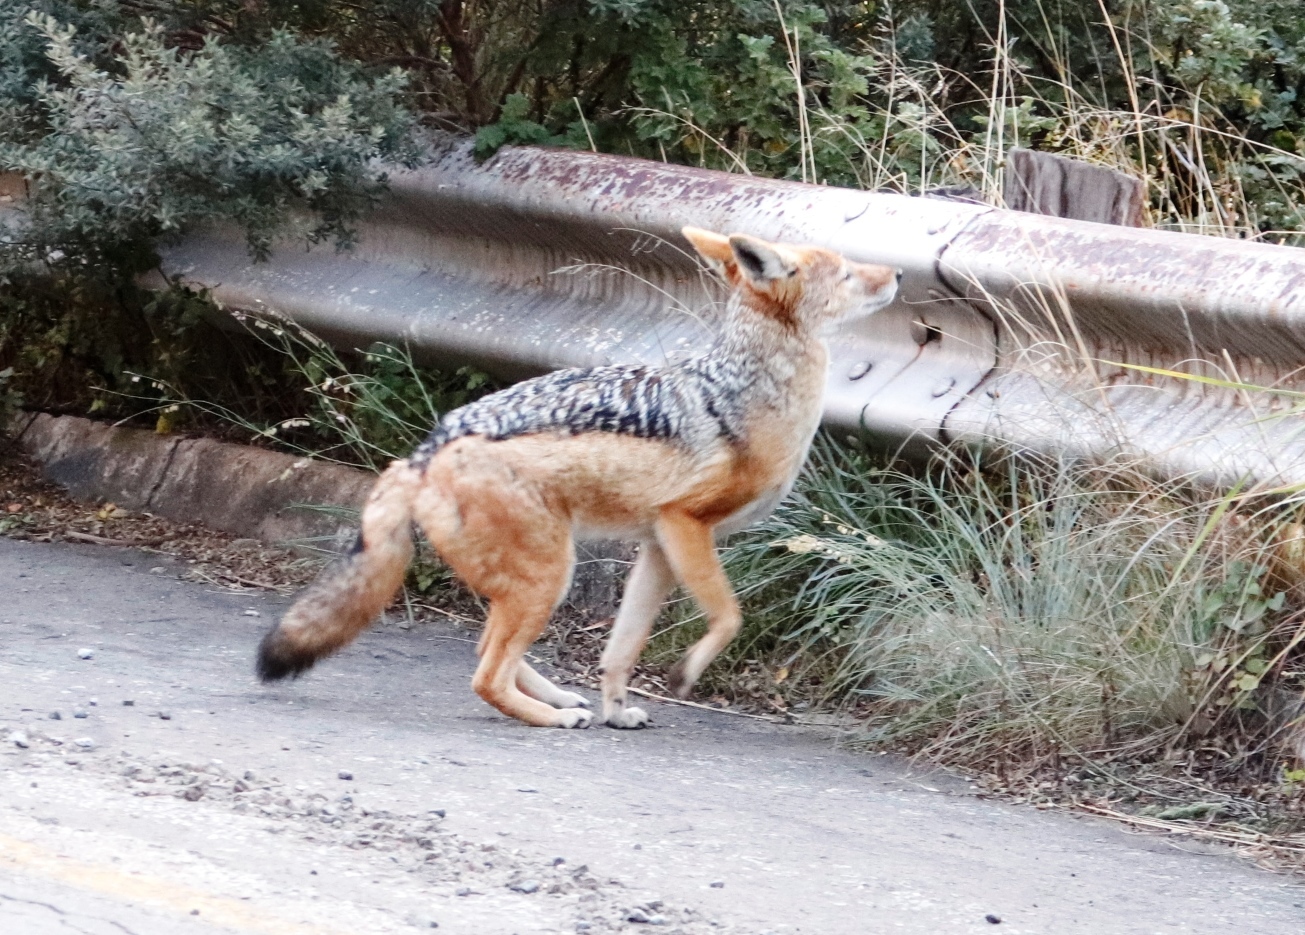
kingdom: Animalia
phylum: Chordata
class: Mammalia
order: Carnivora
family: Canidae
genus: Lupulella
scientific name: Lupulella
